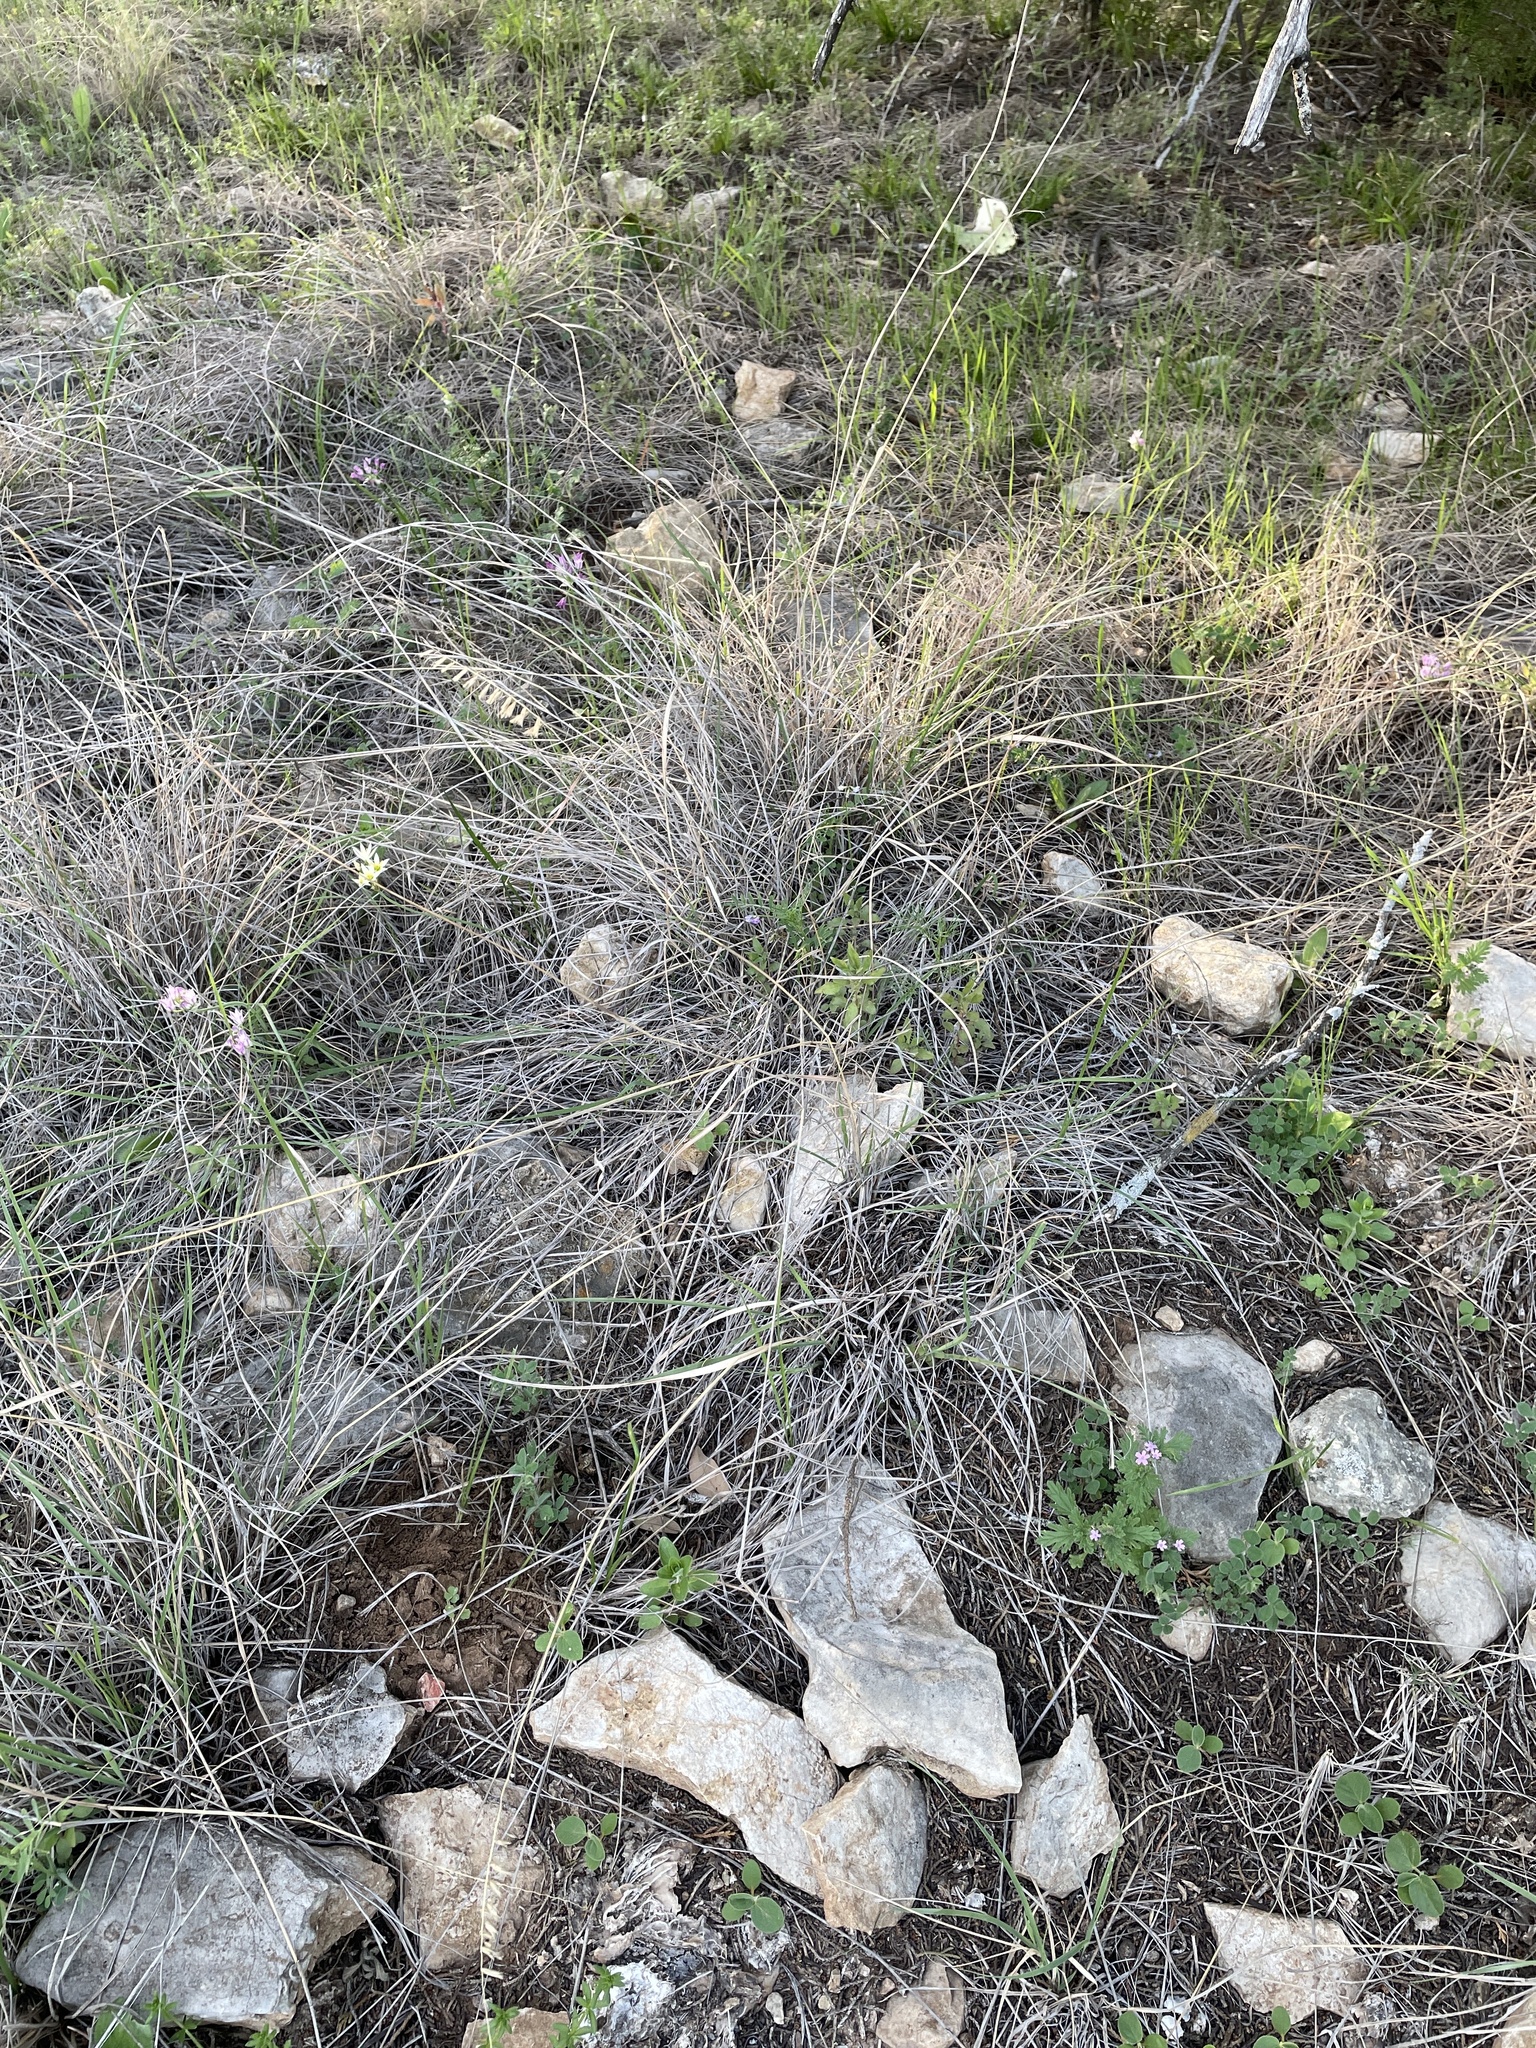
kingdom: Plantae
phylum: Tracheophyta
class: Liliopsida
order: Poales
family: Poaceae
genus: Bouteloua
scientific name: Bouteloua curtipendula
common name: Side-oats grama
